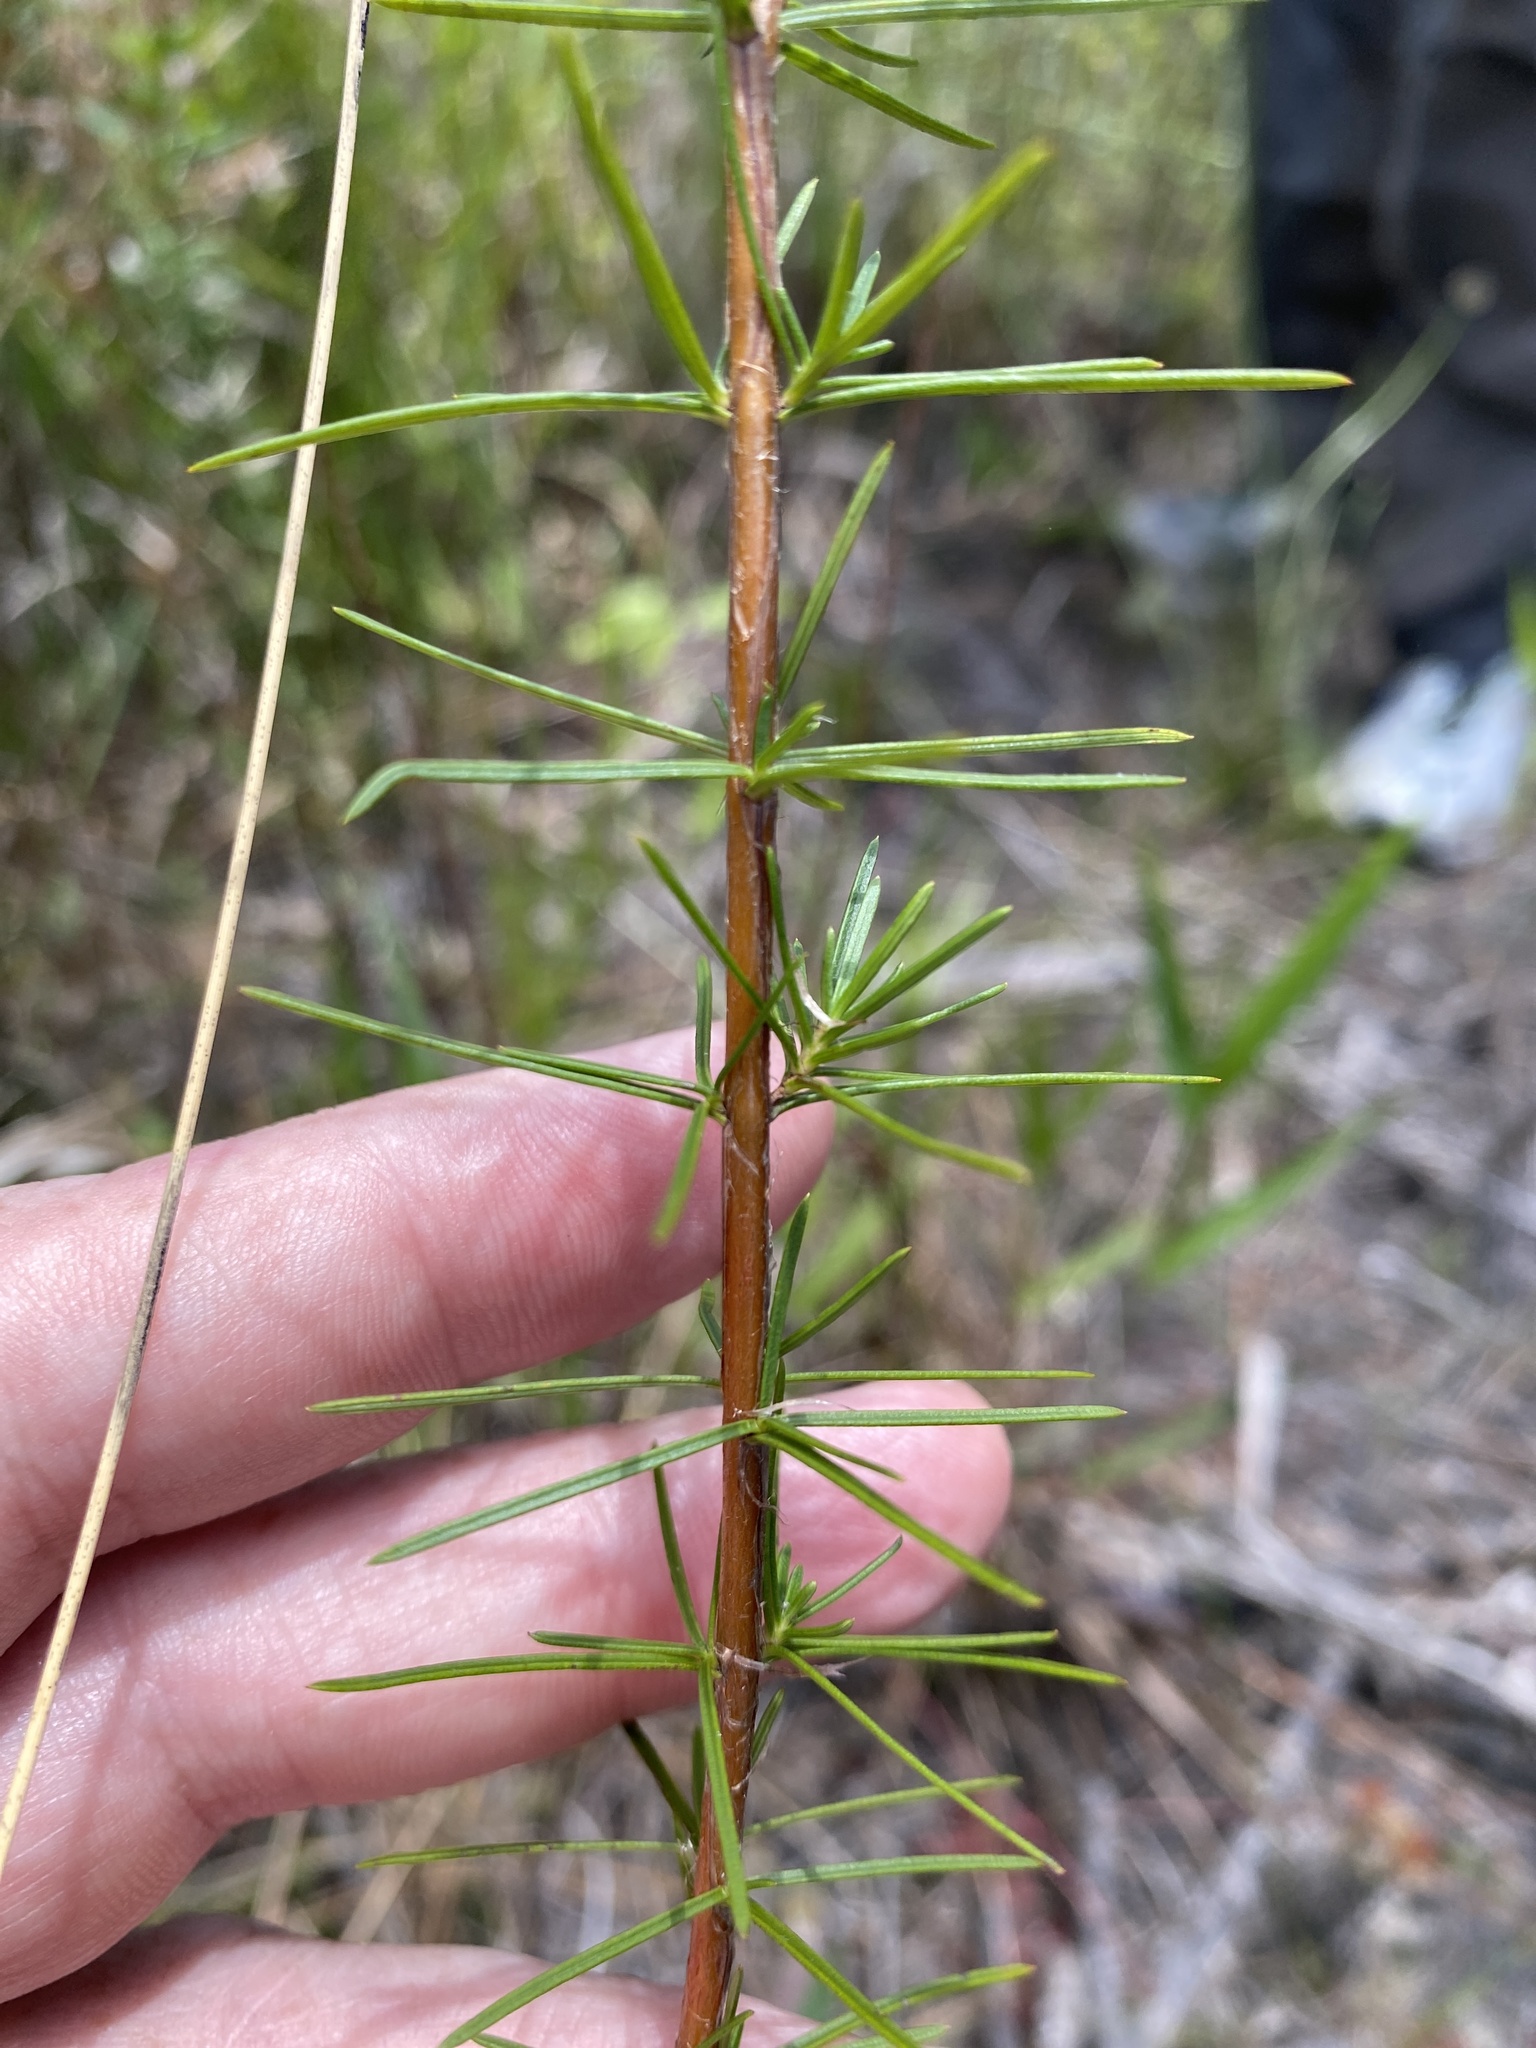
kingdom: Plantae
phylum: Tracheophyta
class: Magnoliopsida
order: Malpighiales
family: Hypericaceae
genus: Hypericum
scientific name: Hypericum nitidum
